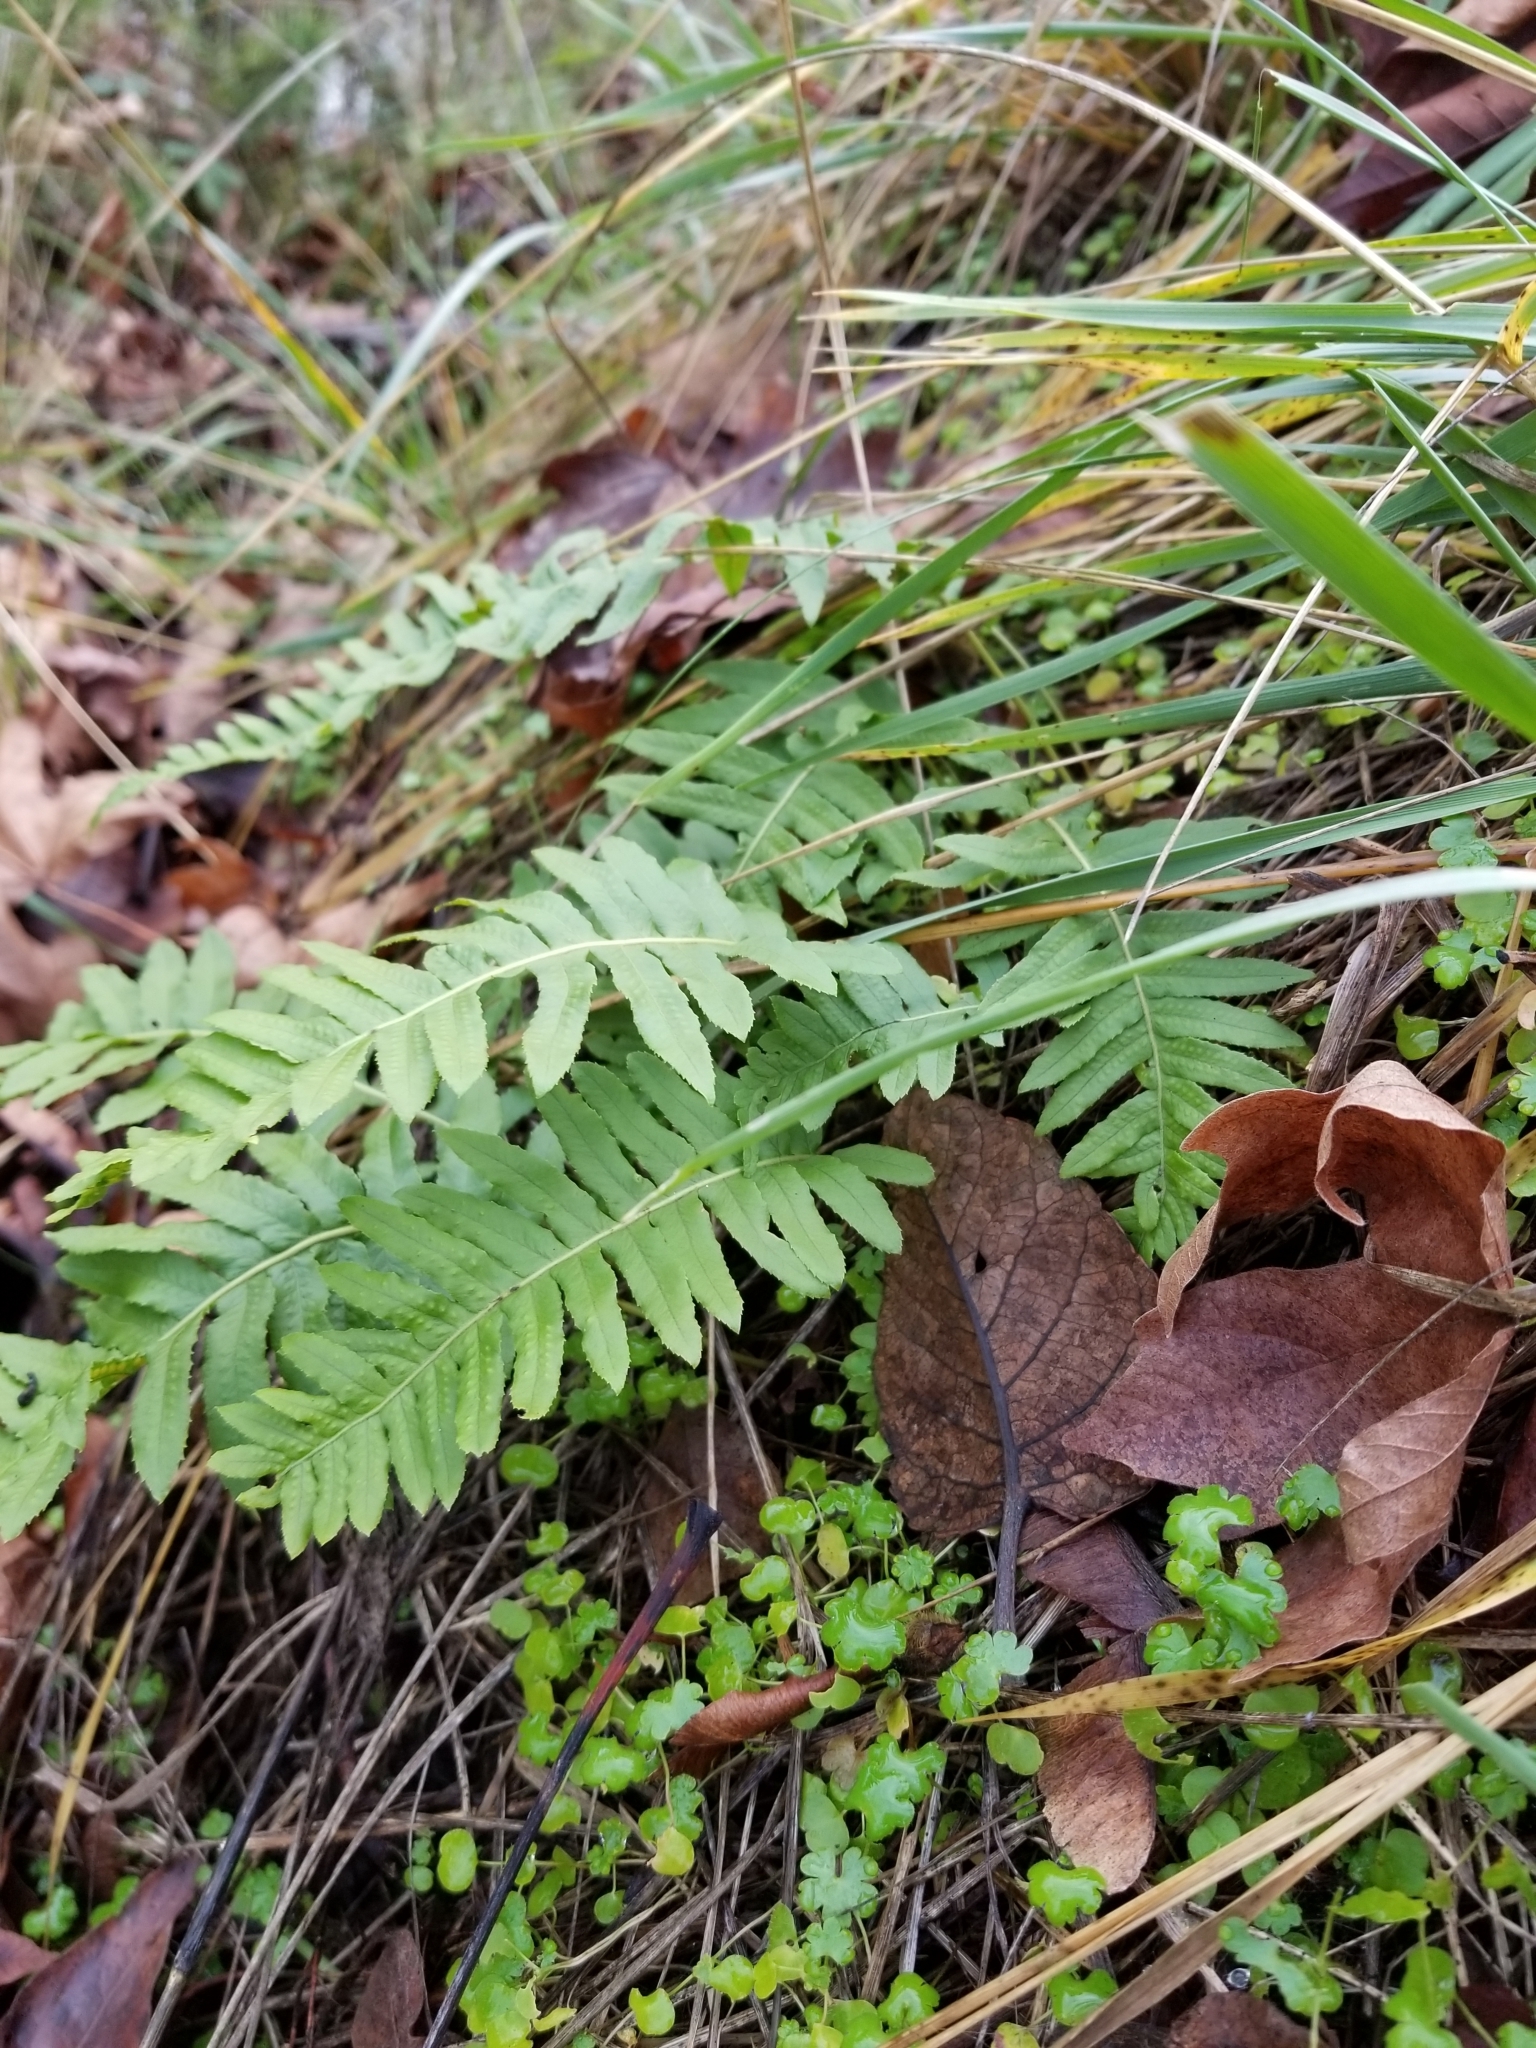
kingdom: Plantae
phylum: Tracheophyta
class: Polypodiopsida
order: Polypodiales
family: Polypodiaceae
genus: Polypodium
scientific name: Polypodium glycyrrhiza
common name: Licorice fern
